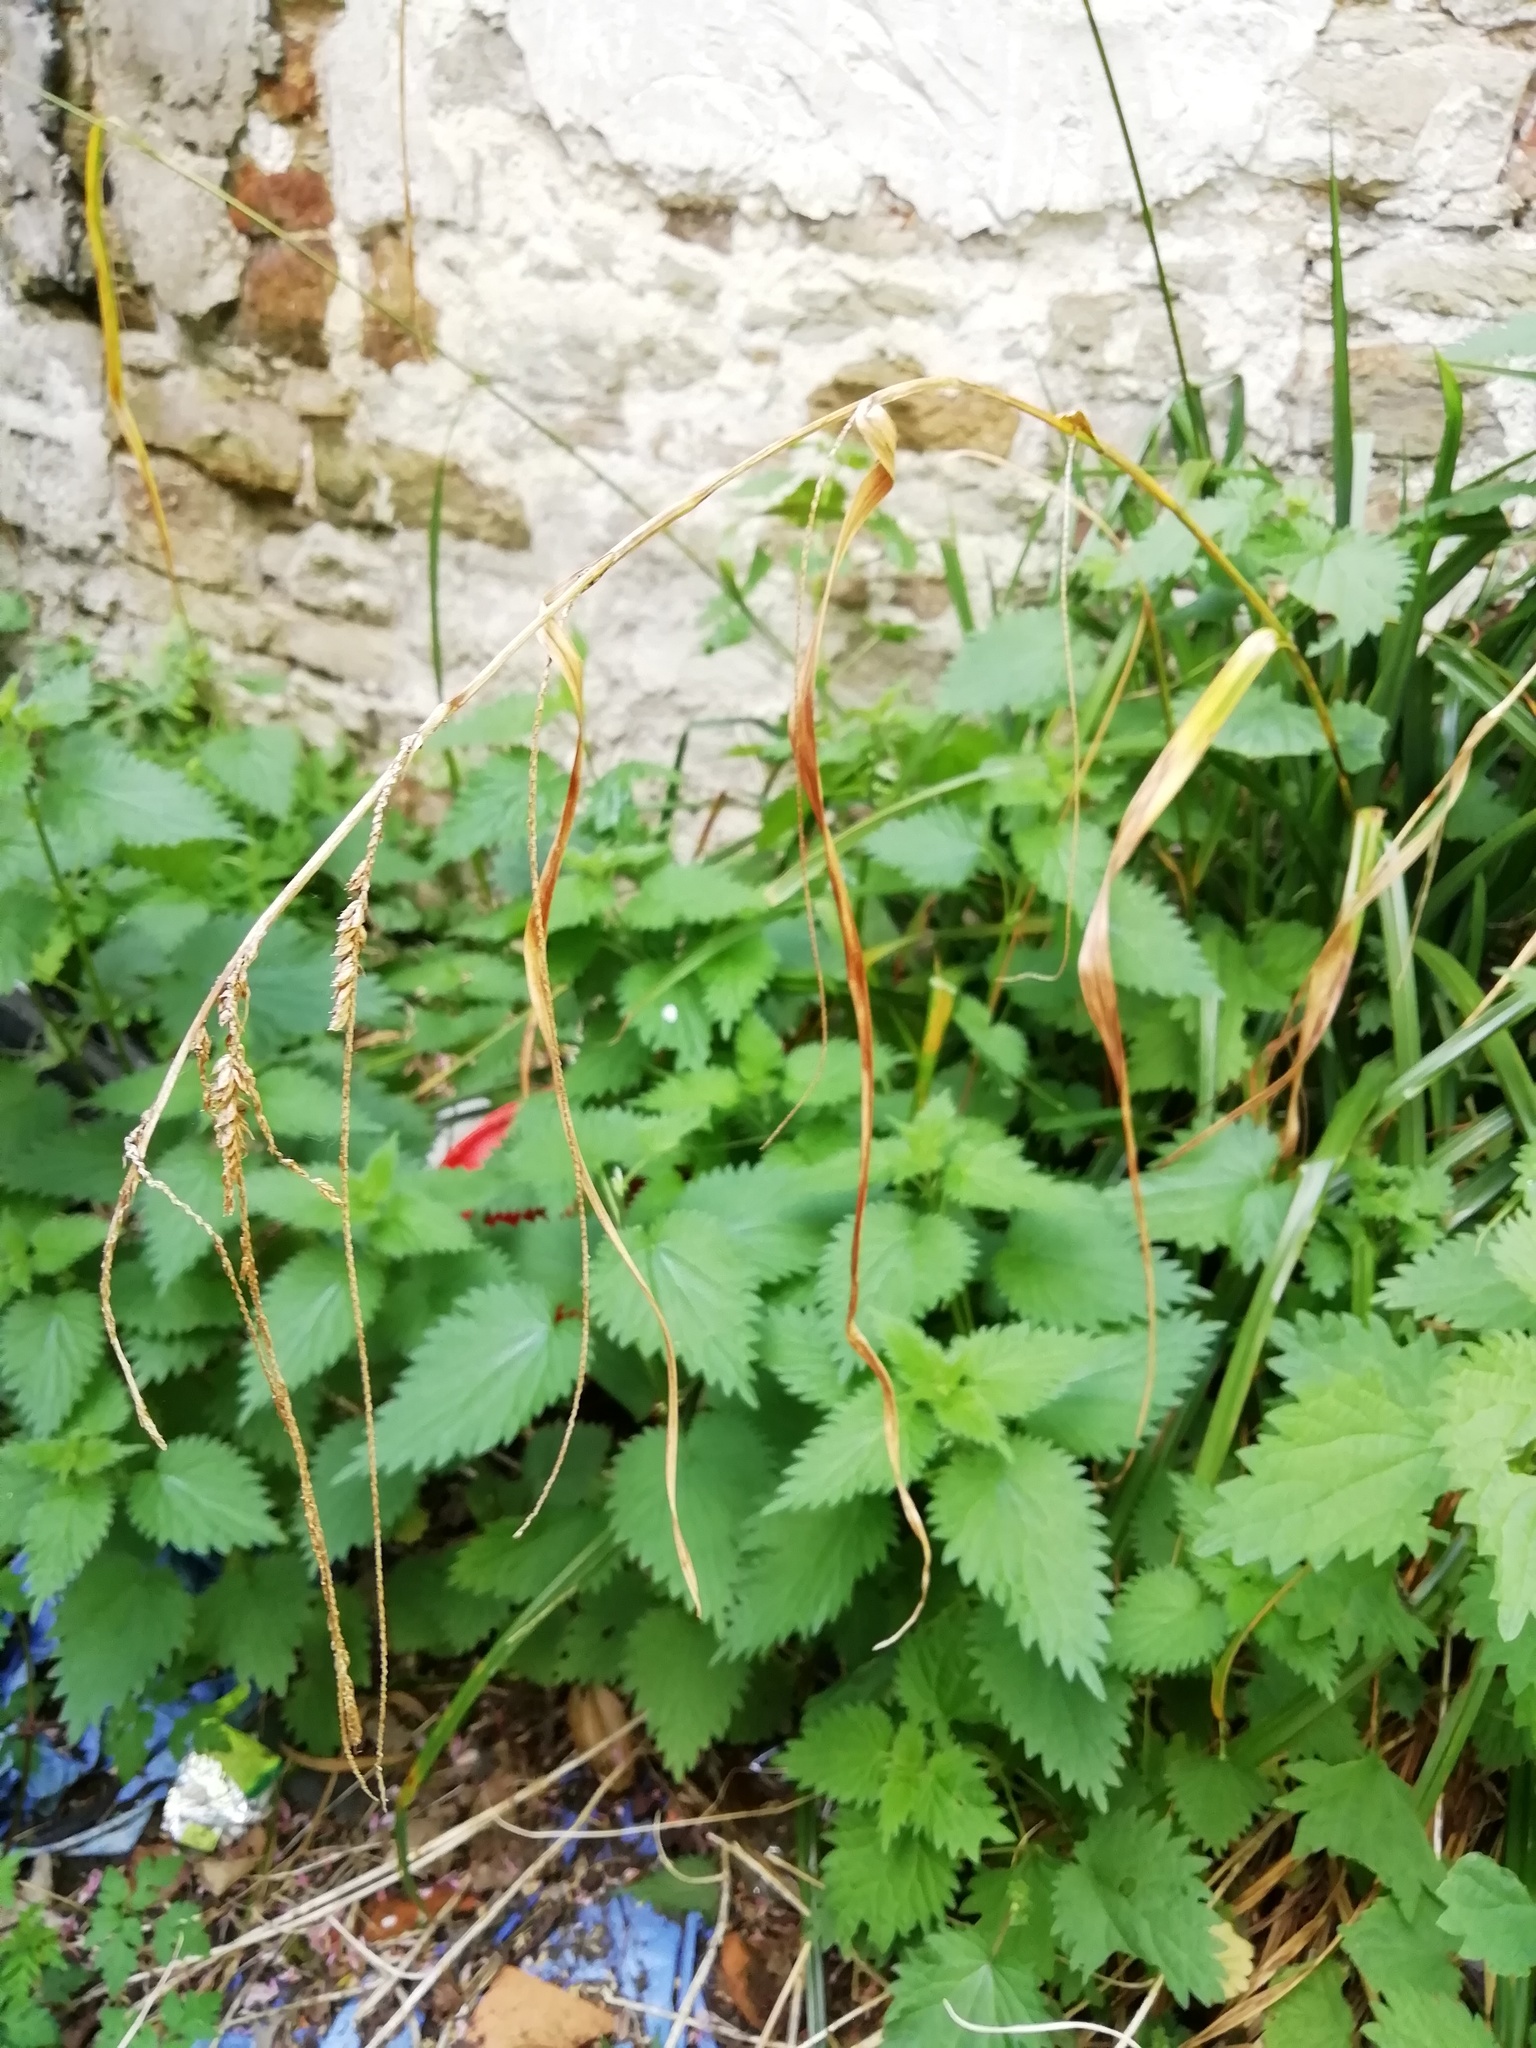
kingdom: Plantae
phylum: Tracheophyta
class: Liliopsida
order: Poales
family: Cyperaceae
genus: Carex
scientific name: Carex pendula
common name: Pendulous sedge
